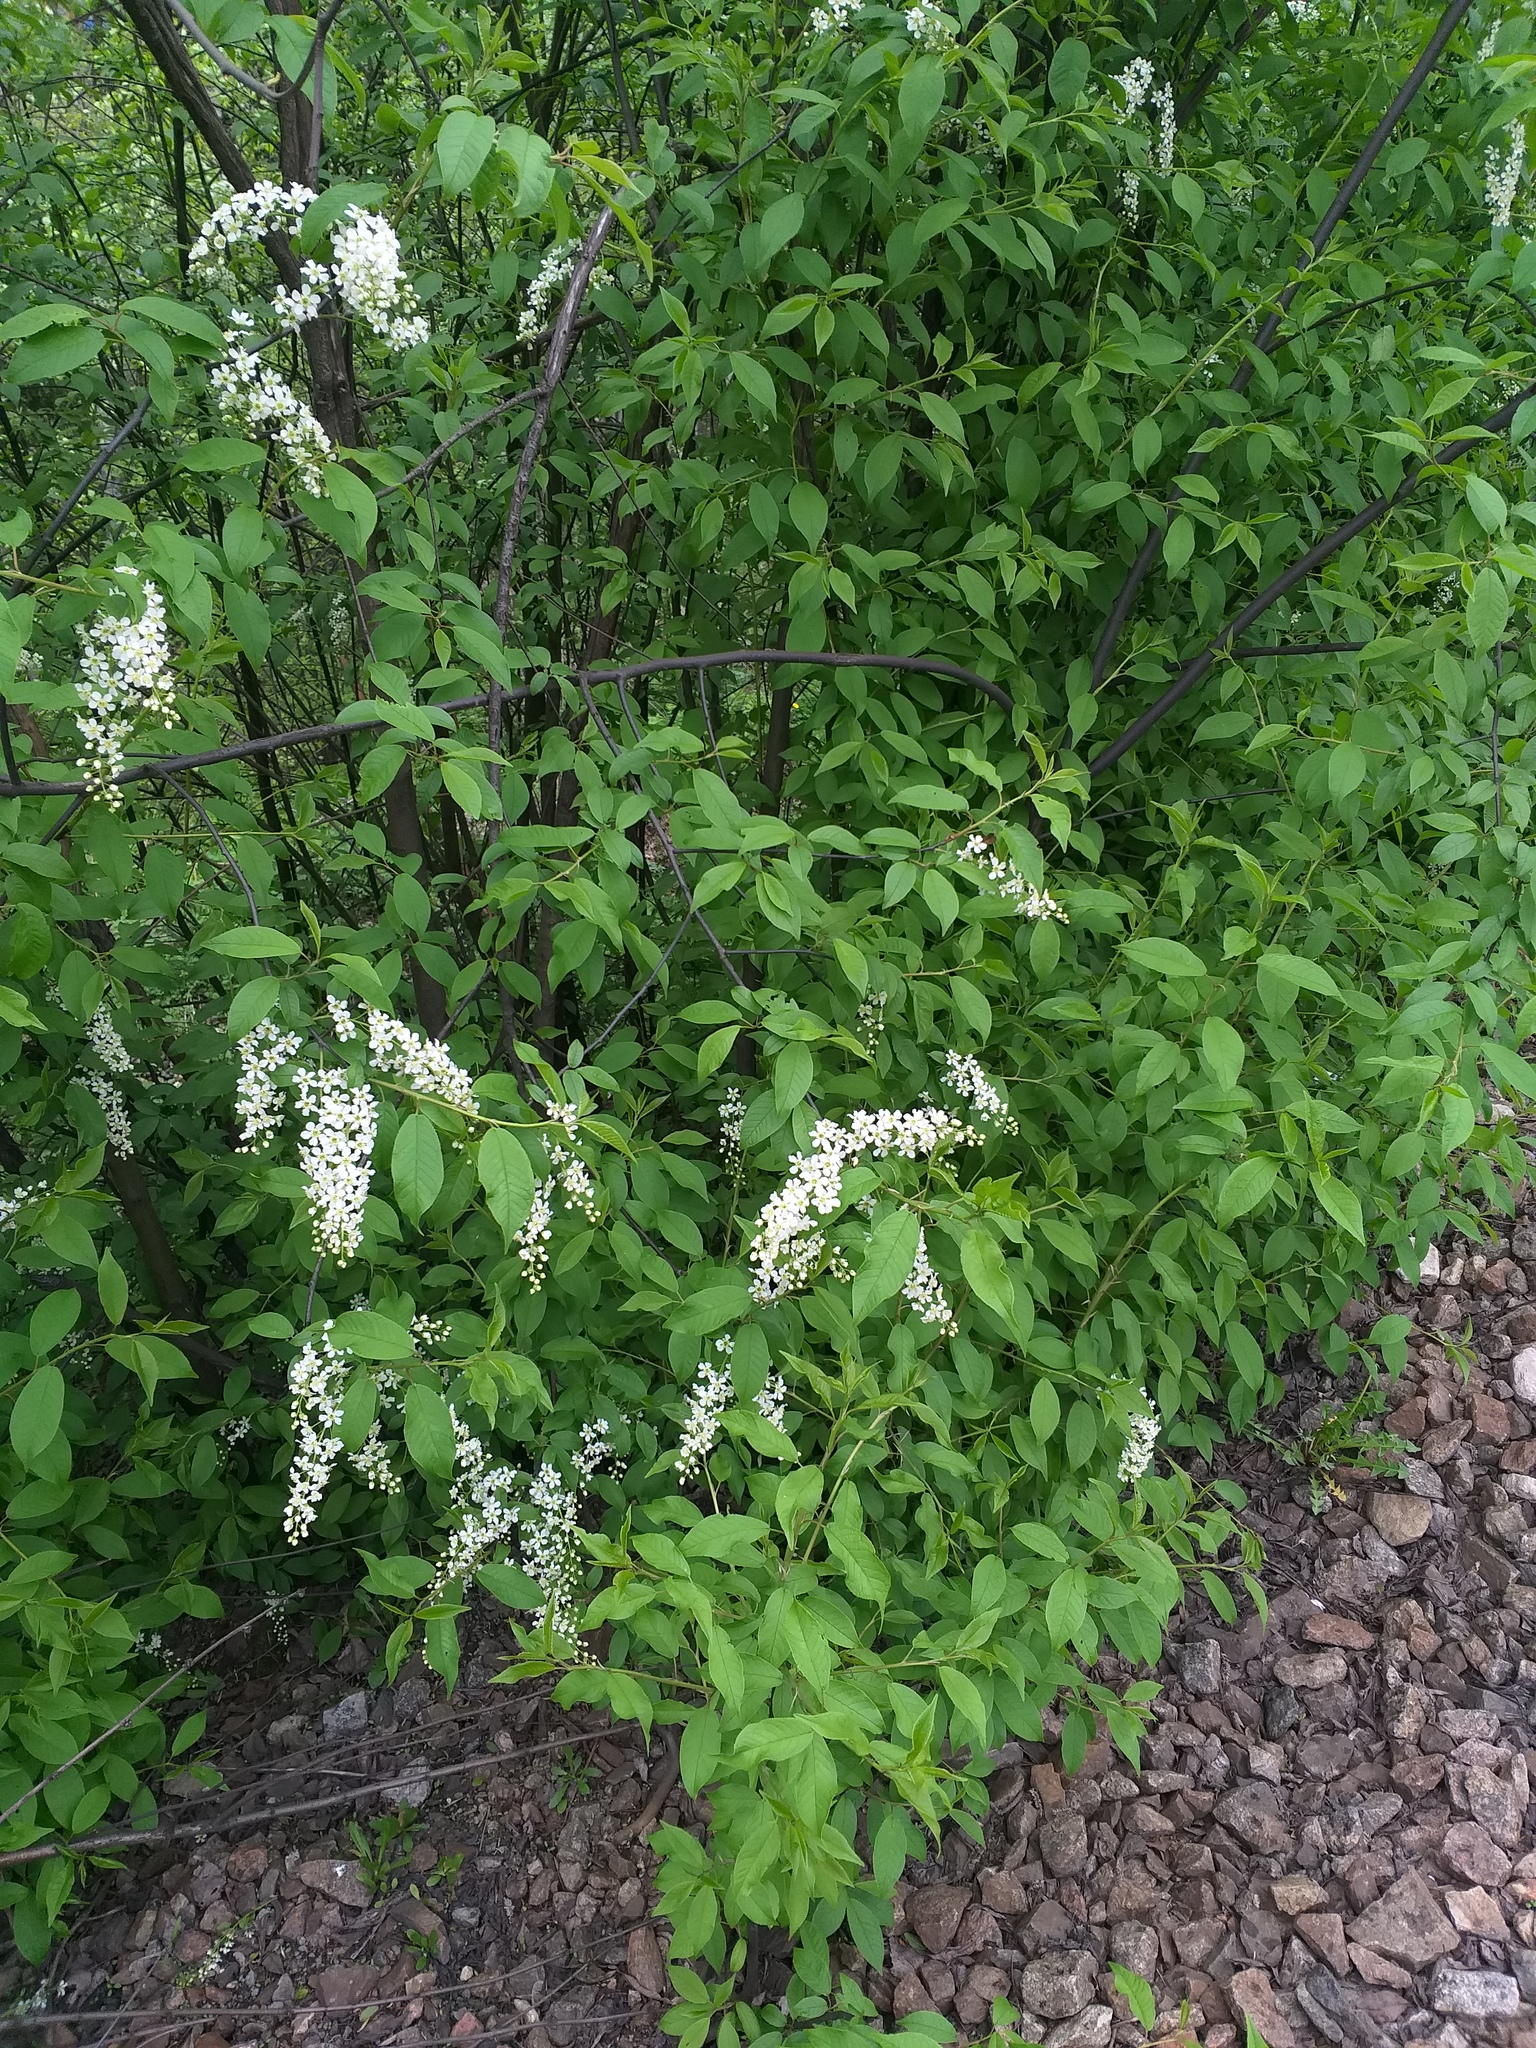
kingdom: Plantae
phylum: Tracheophyta
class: Magnoliopsida
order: Rosales
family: Rosaceae
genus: Prunus
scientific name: Prunus padus
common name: Bird cherry
